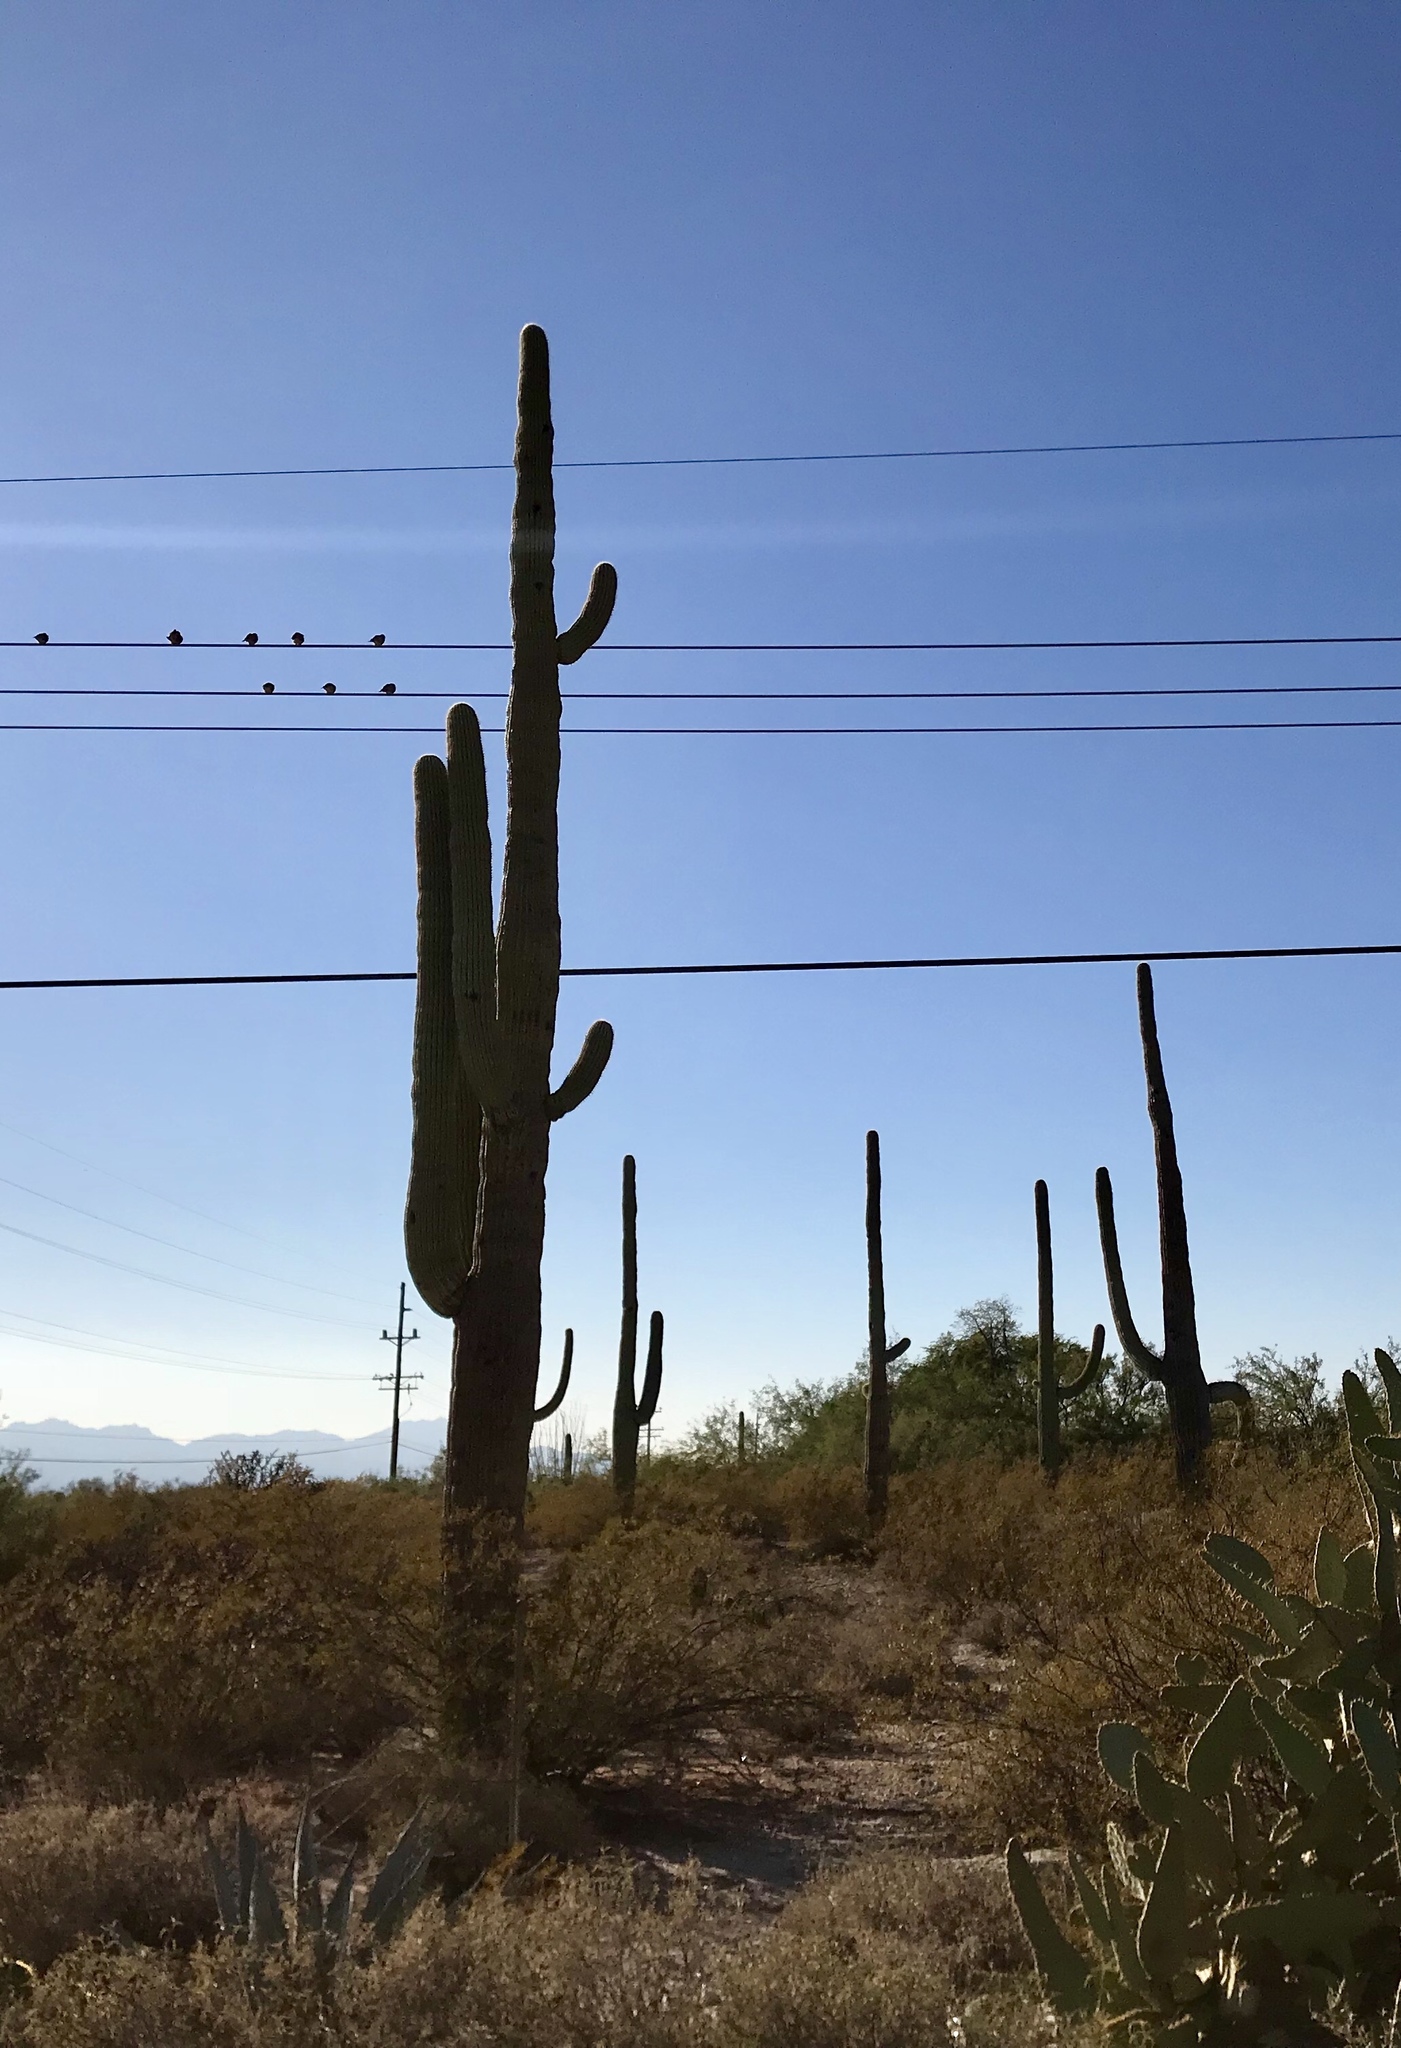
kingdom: Plantae
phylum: Tracheophyta
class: Magnoliopsida
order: Caryophyllales
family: Cactaceae
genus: Carnegiea
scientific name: Carnegiea gigantea
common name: Saguaro
